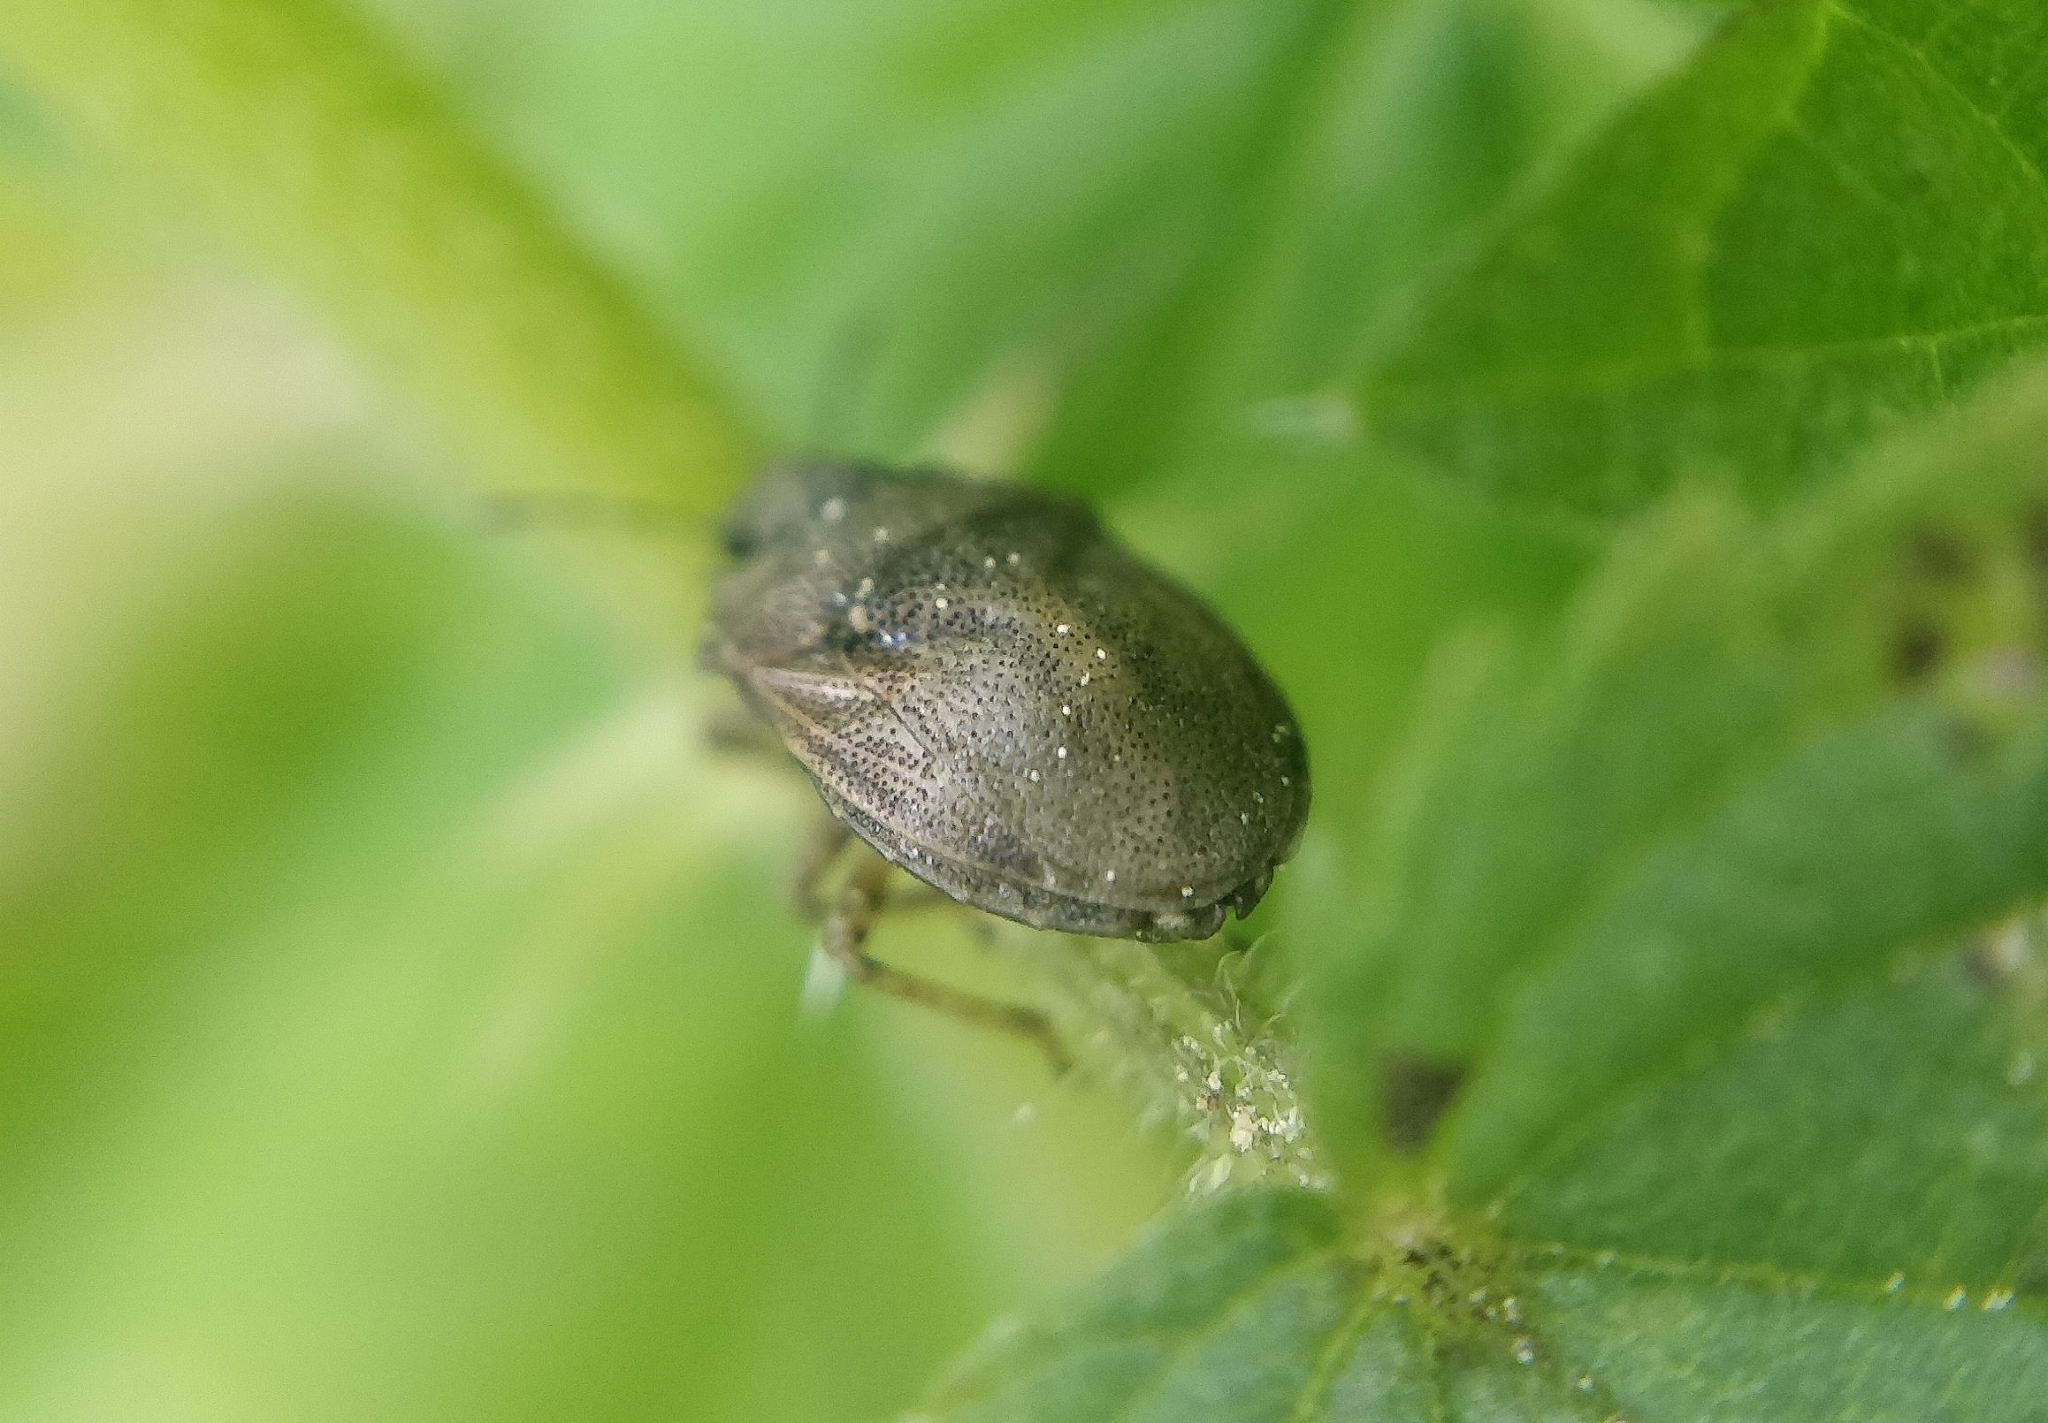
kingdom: Animalia
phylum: Arthropoda
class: Insecta
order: Hemiptera
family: Pentatomidae
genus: Podops
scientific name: Podops inunctus
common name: Turtle bug
